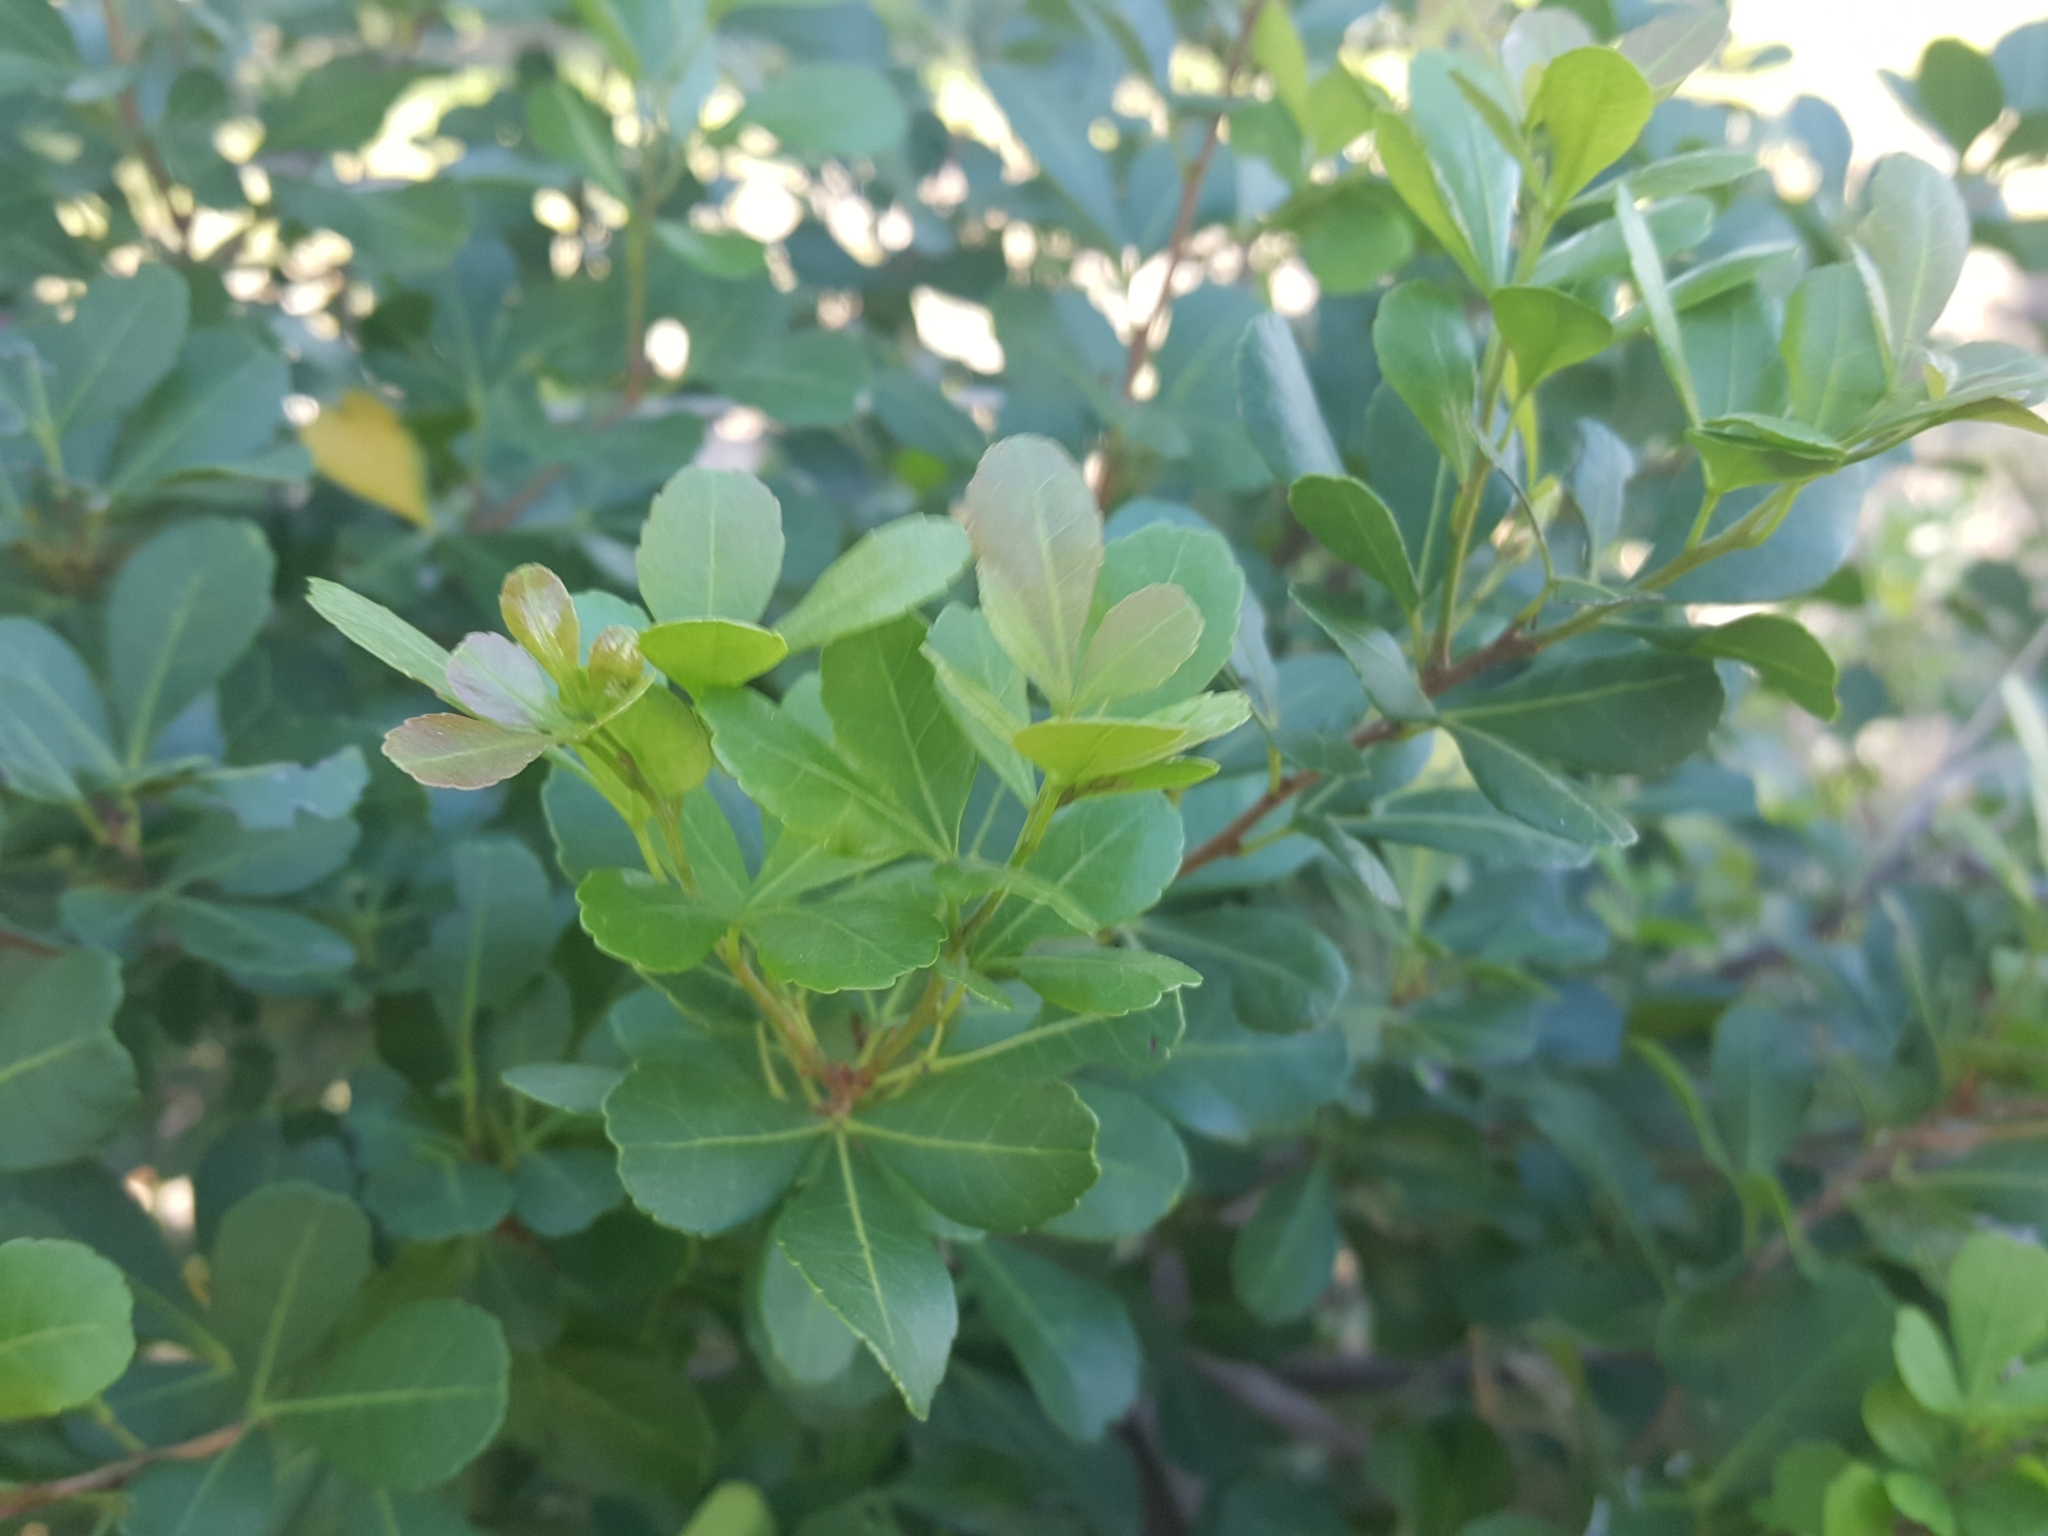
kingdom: Plantae
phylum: Tracheophyta
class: Magnoliopsida
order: Sapindales
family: Anacardiaceae
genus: Searsia
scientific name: Searsia crenata
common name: Crowberry
